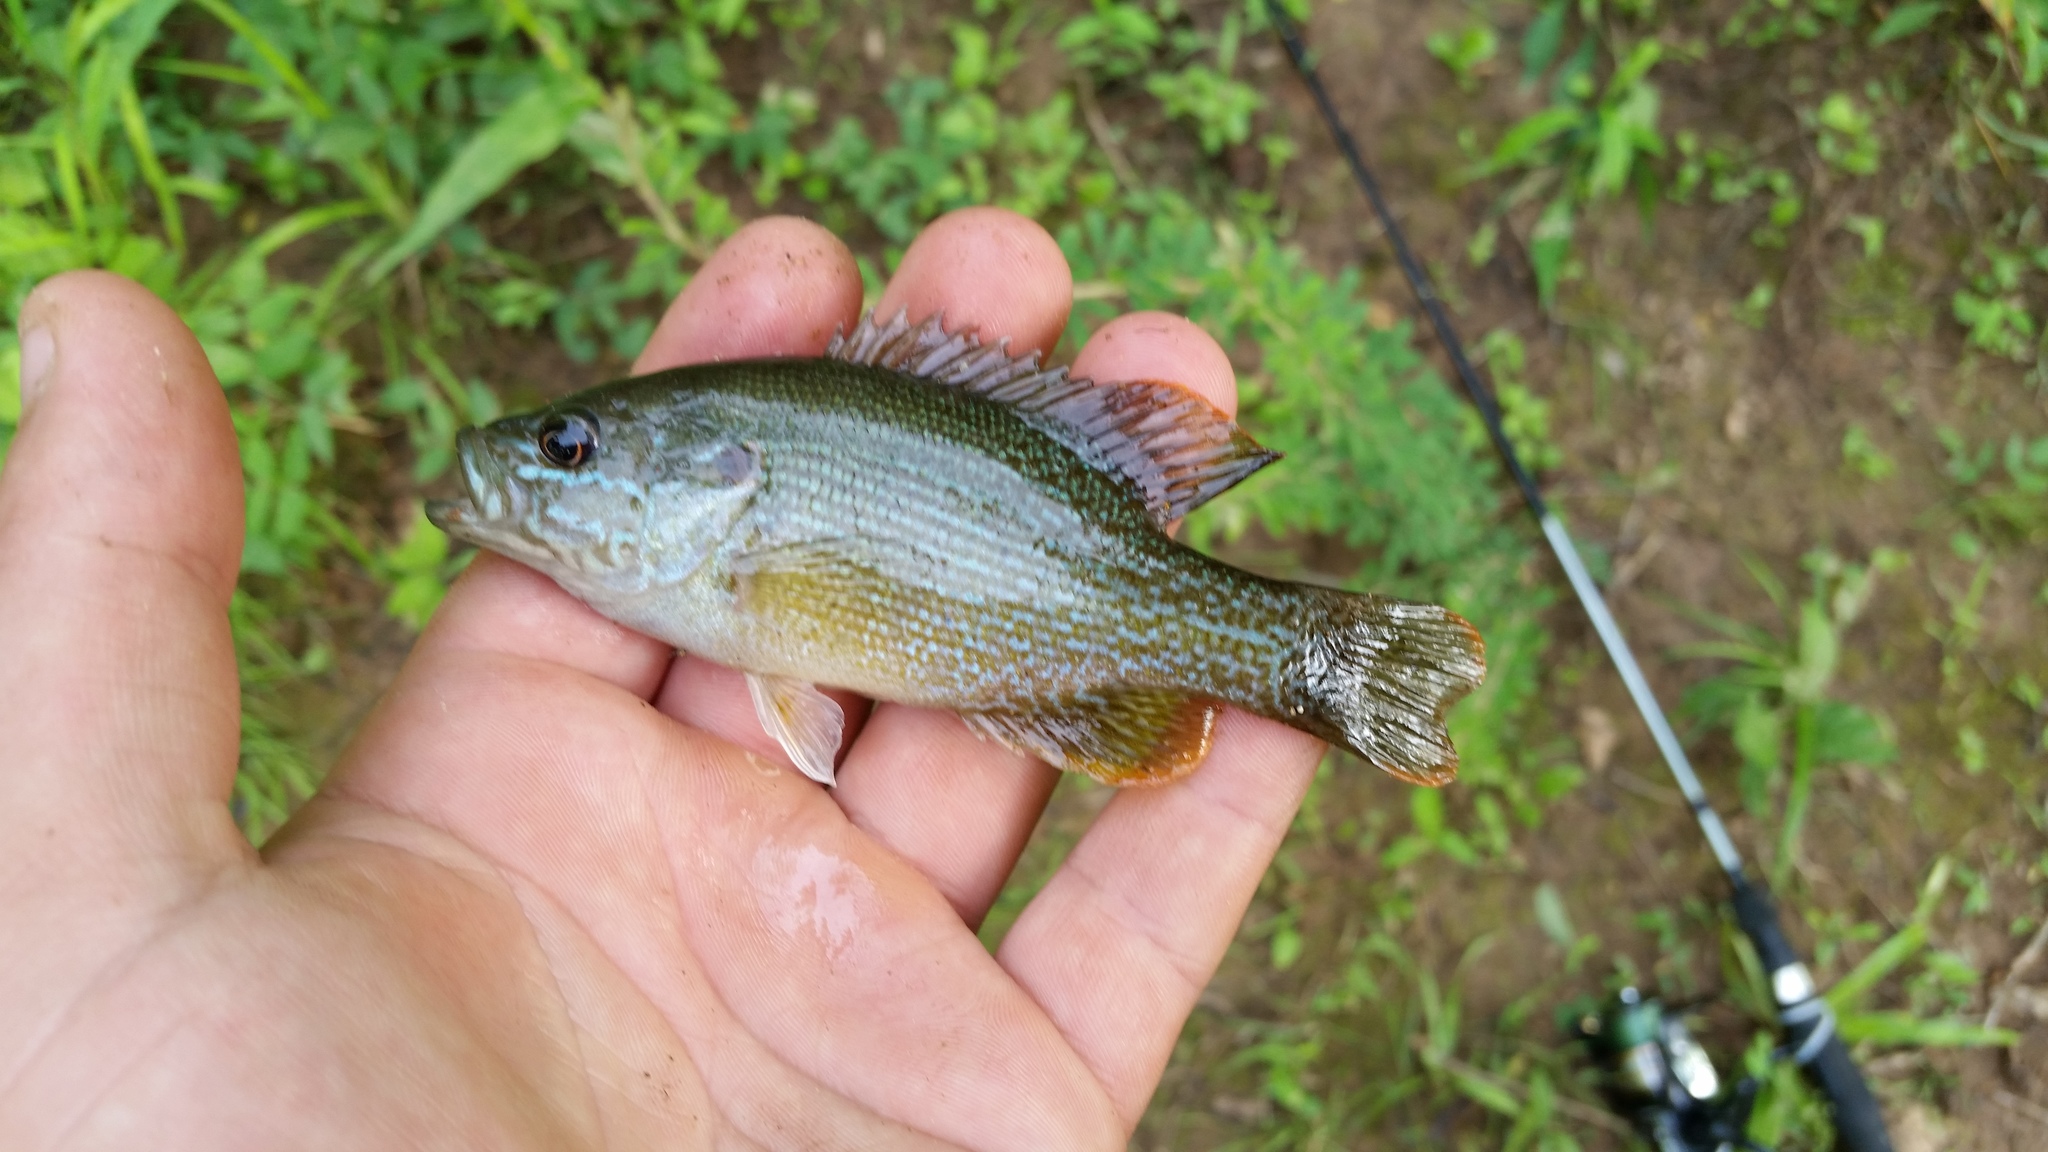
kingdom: Animalia
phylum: Chordata
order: Perciformes
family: Centrarchidae
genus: Lepomis
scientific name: Lepomis cyanellus
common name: Green sunfish
